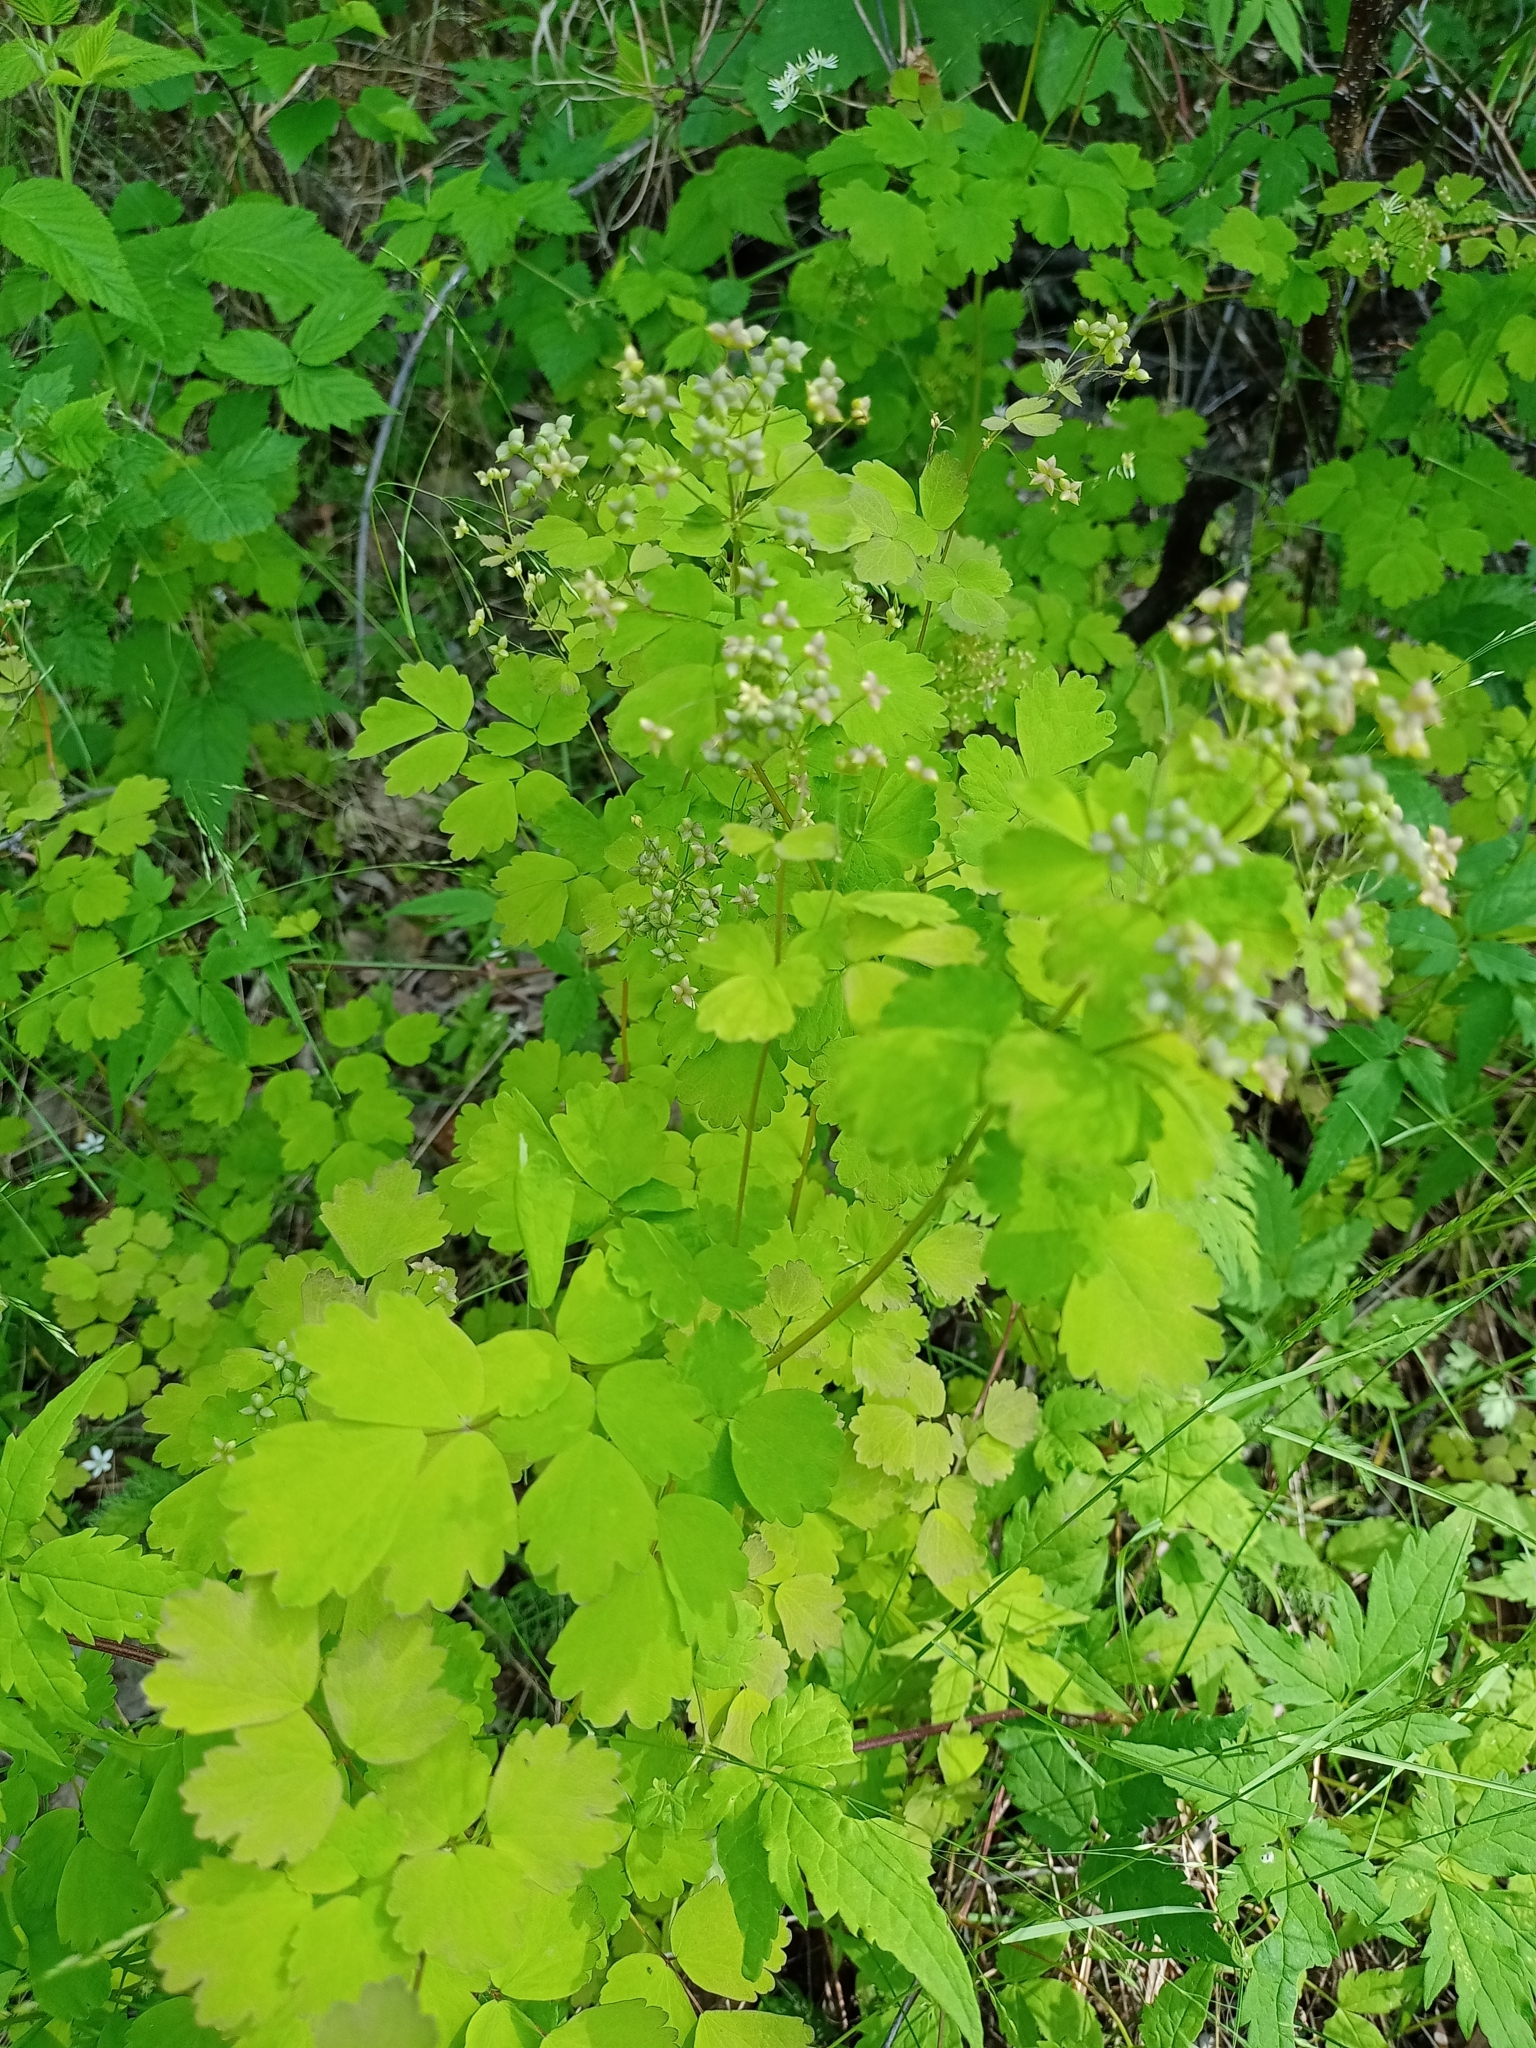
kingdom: Plantae
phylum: Tracheophyta
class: Magnoliopsida
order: Ranunculales
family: Ranunculaceae
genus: Thalictrum
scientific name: Thalictrum baicalense
